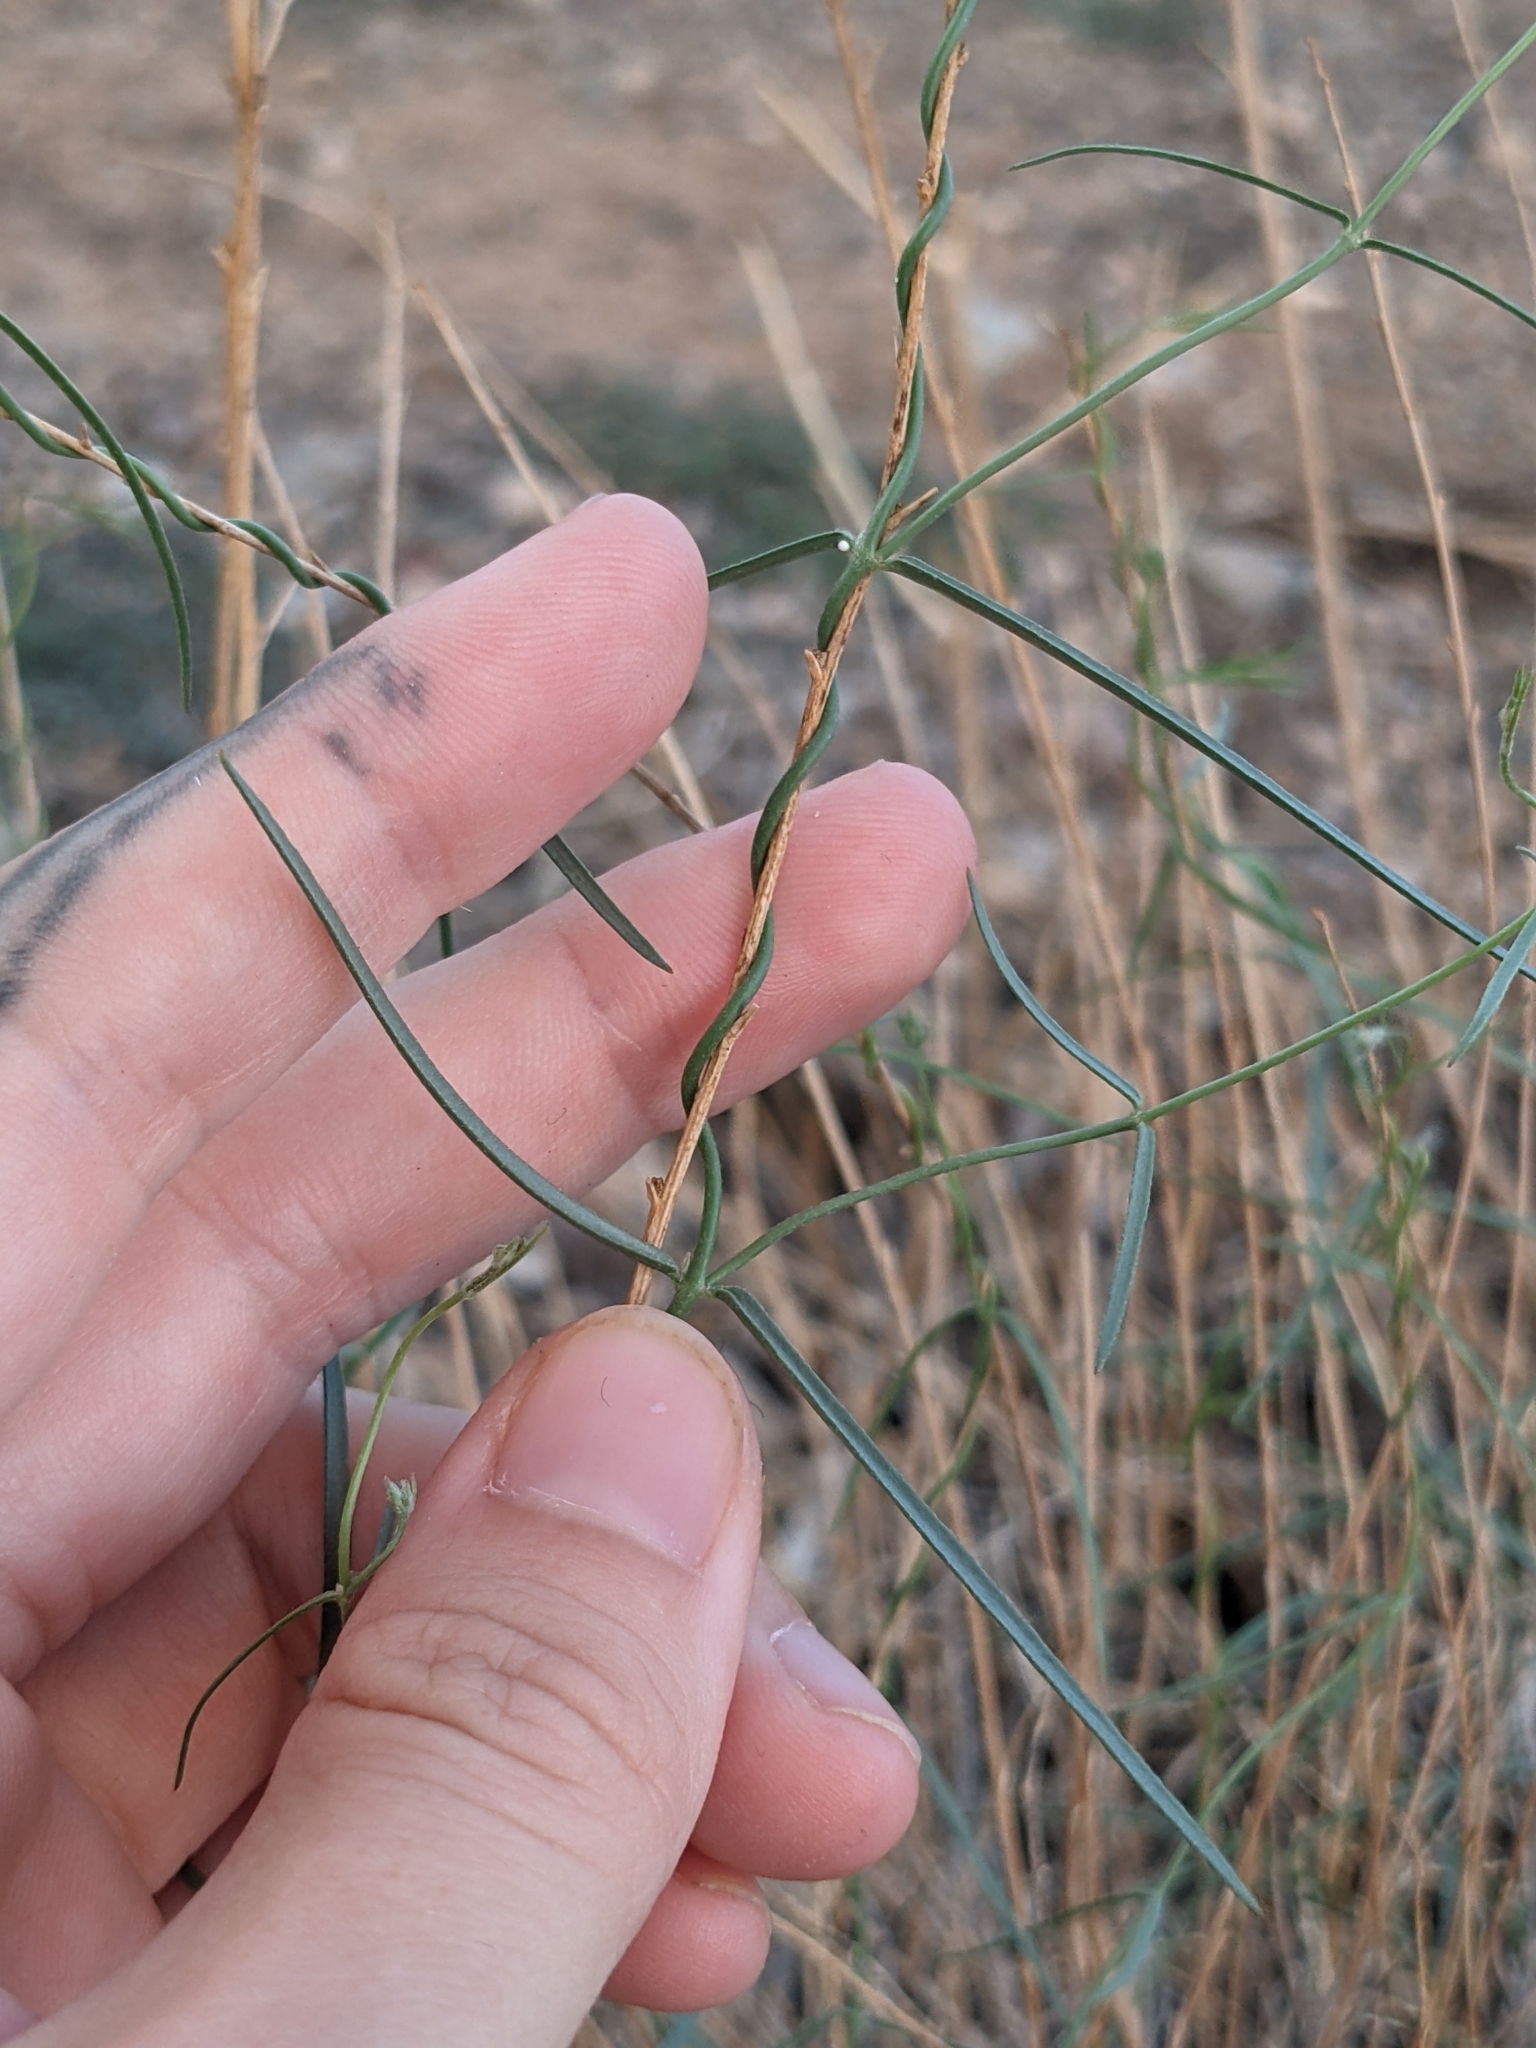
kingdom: Plantae
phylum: Tracheophyta
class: Magnoliopsida
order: Gentianales
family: Apocynaceae
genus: Funastrum
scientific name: Funastrum utahense
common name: Utah swallow-wort
